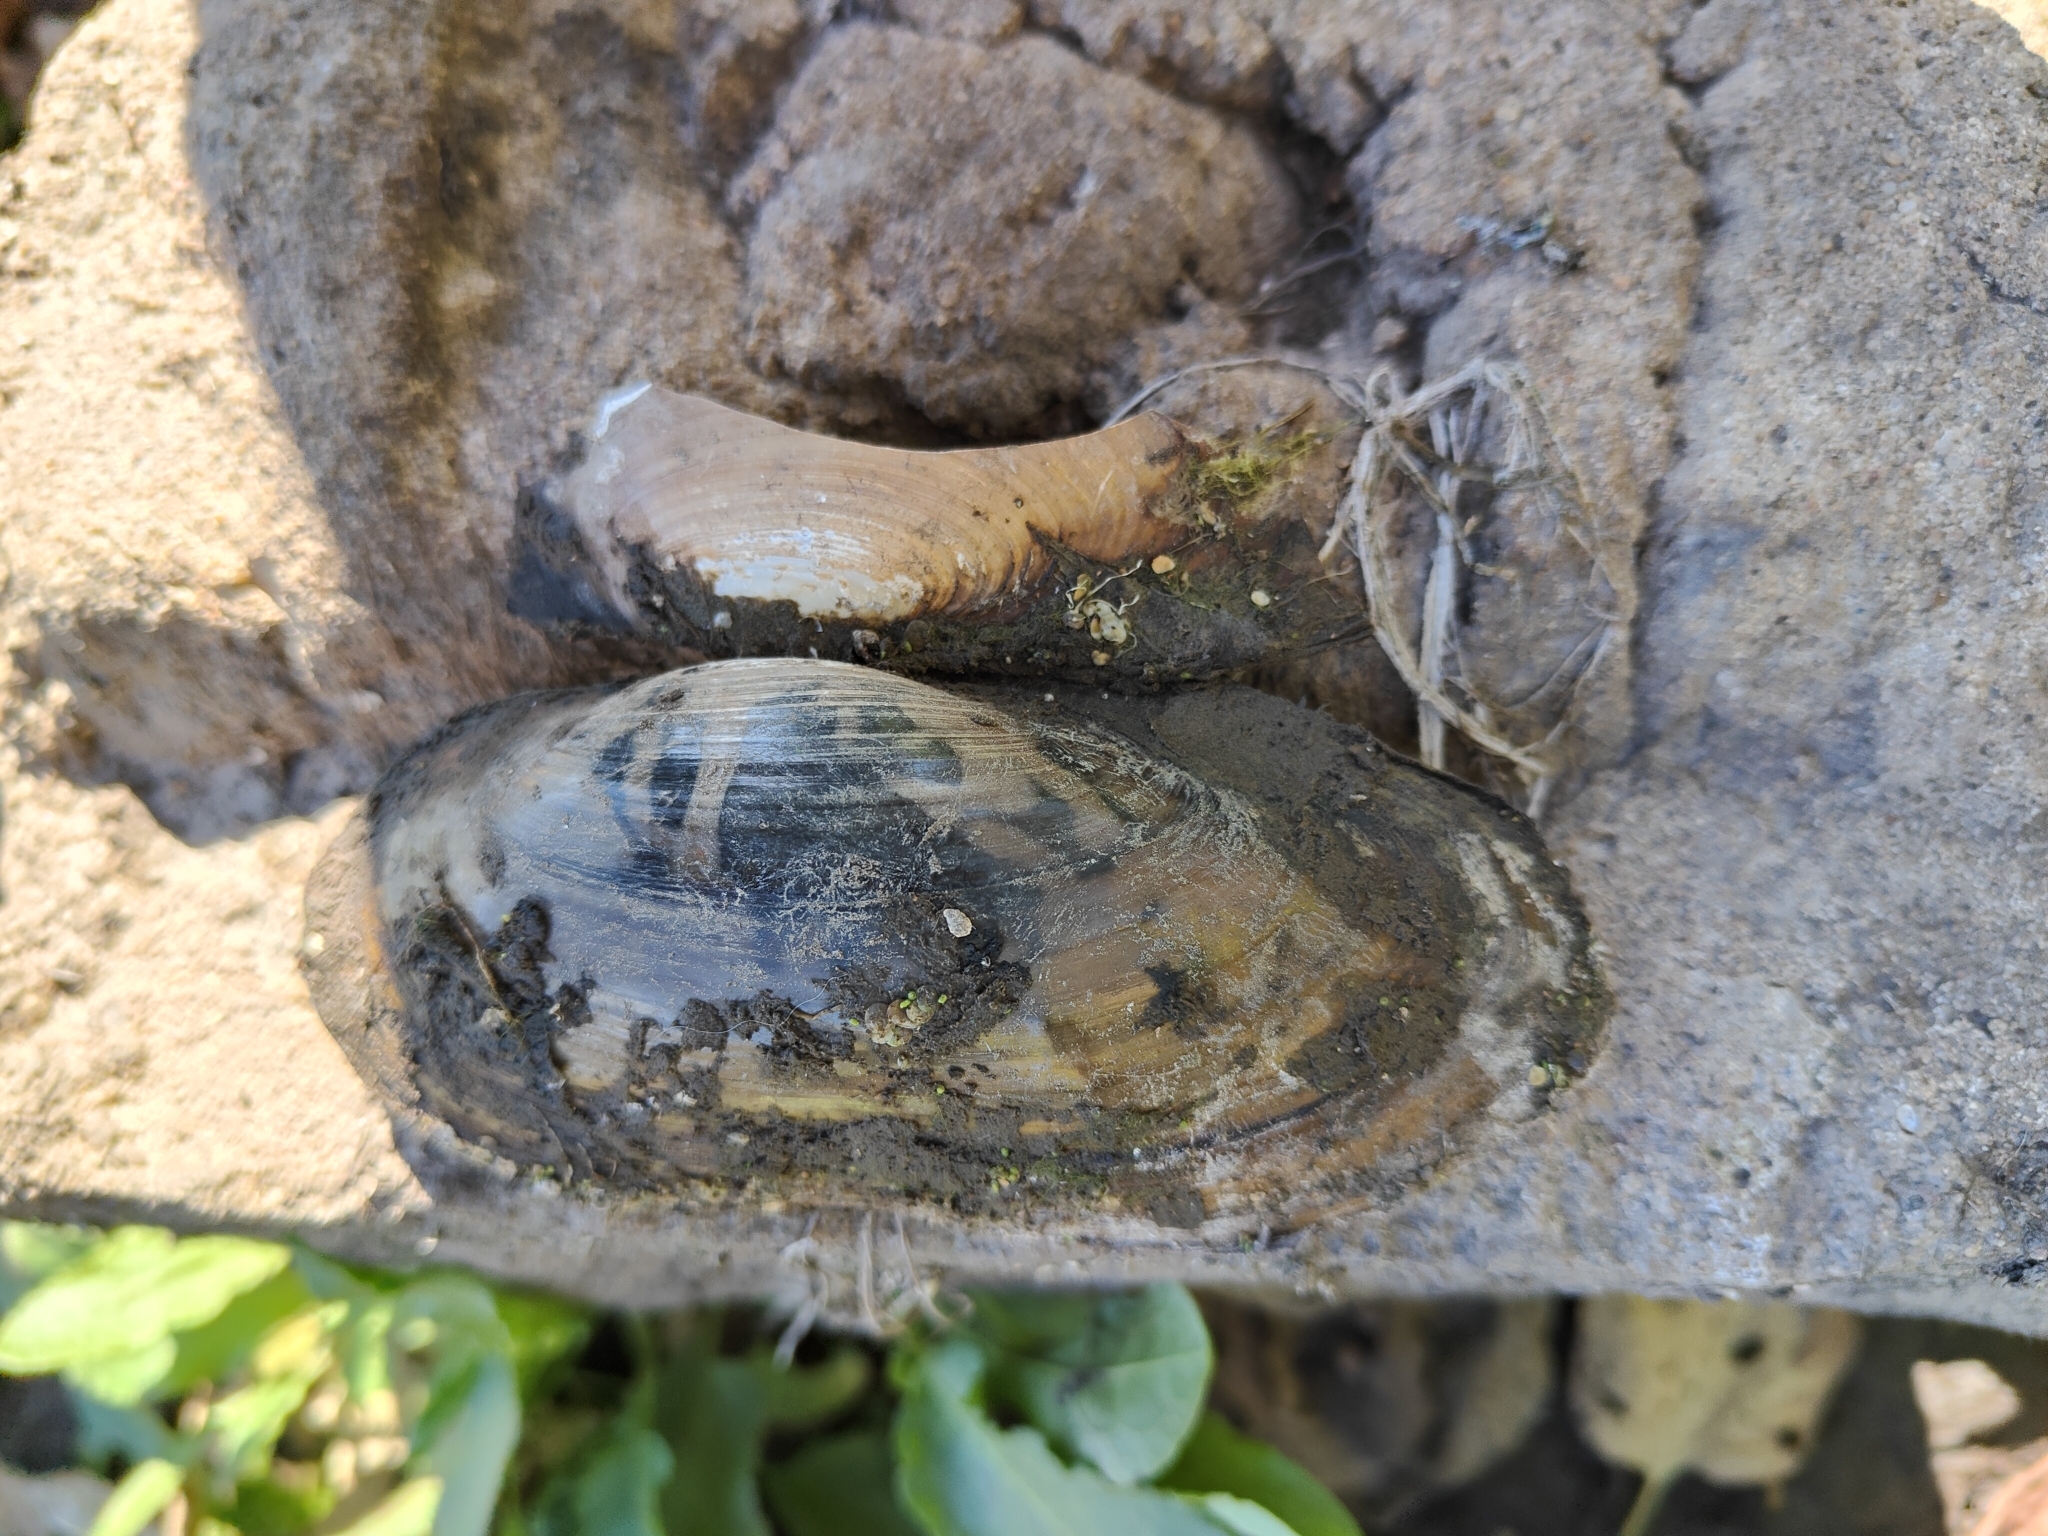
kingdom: Animalia
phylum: Mollusca
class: Bivalvia
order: Unionida
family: Unionidae
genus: Utterbackia
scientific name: Utterbackia imbecillis
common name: Paper pondshell
